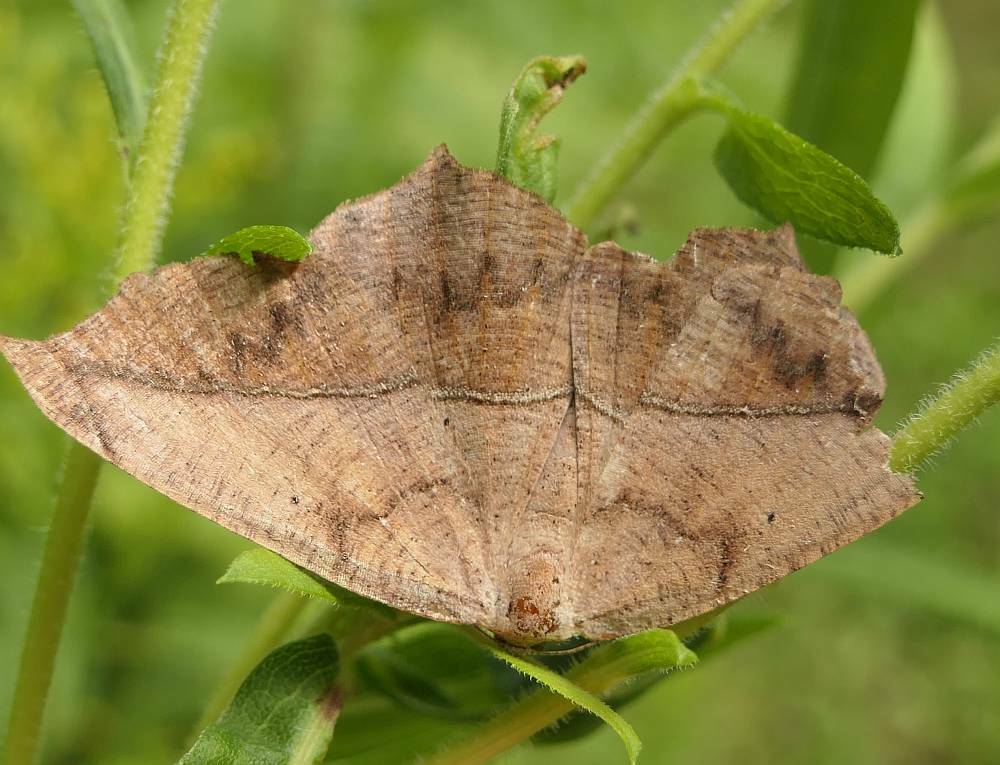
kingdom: Animalia
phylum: Arthropoda
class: Insecta
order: Lepidoptera
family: Geometridae
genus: Prochoerodes
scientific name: Prochoerodes lineola
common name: Large maple spanworm
